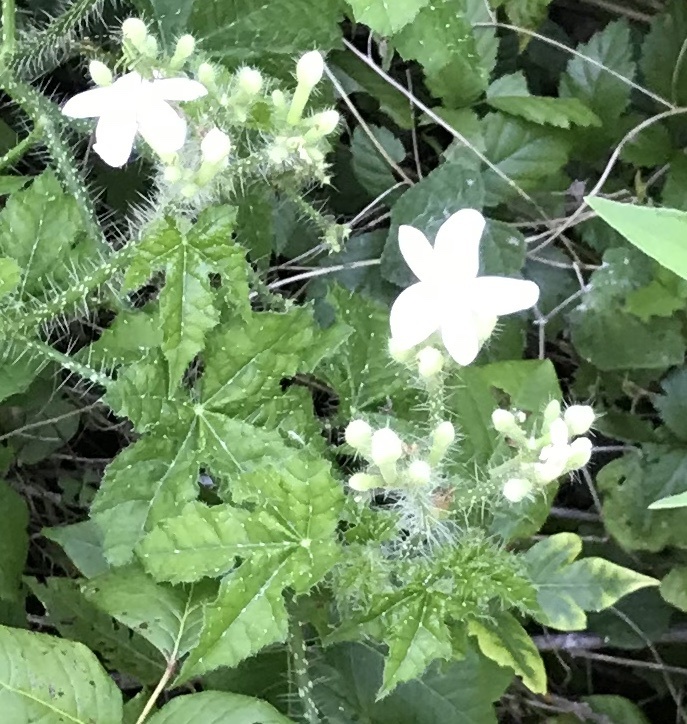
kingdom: Plantae
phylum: Tracheophyta
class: Magnoliopsida
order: Malpighiales
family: Euphorbiaceae
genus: Cnidoscolus
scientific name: Cnidoscolus texanus
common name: Texas bull-nettle
